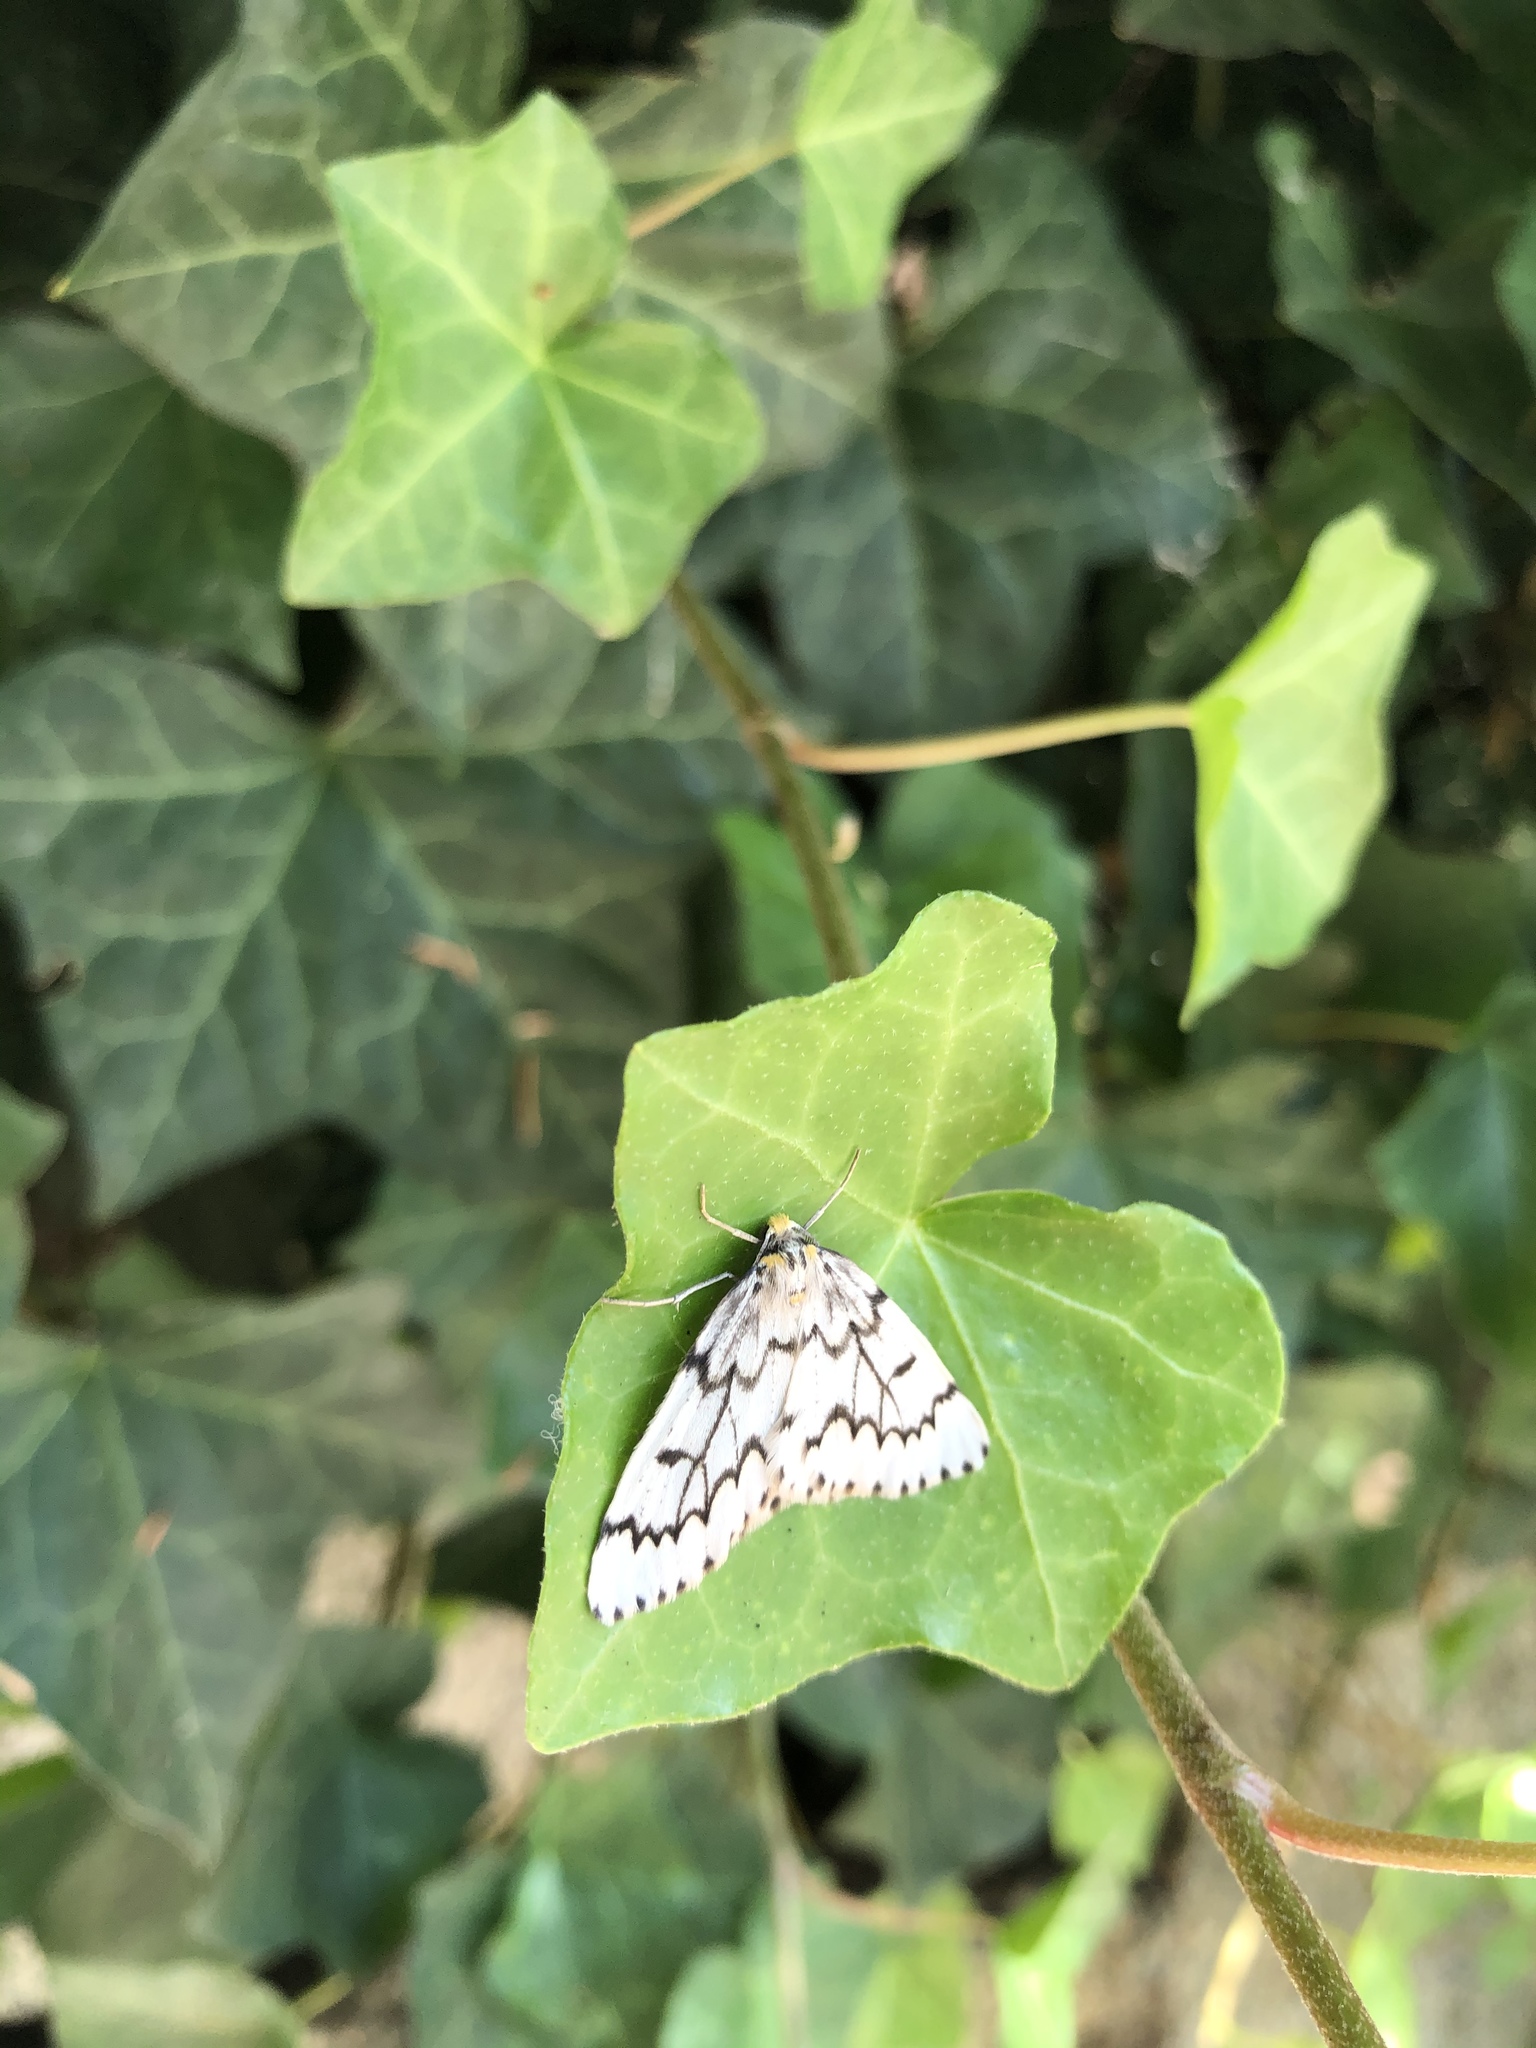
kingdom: Animalia
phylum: Arthropoda
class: Insecta
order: Lepidoptera
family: Geometridae
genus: Nepytia
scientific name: Nepytia phantasmaria
